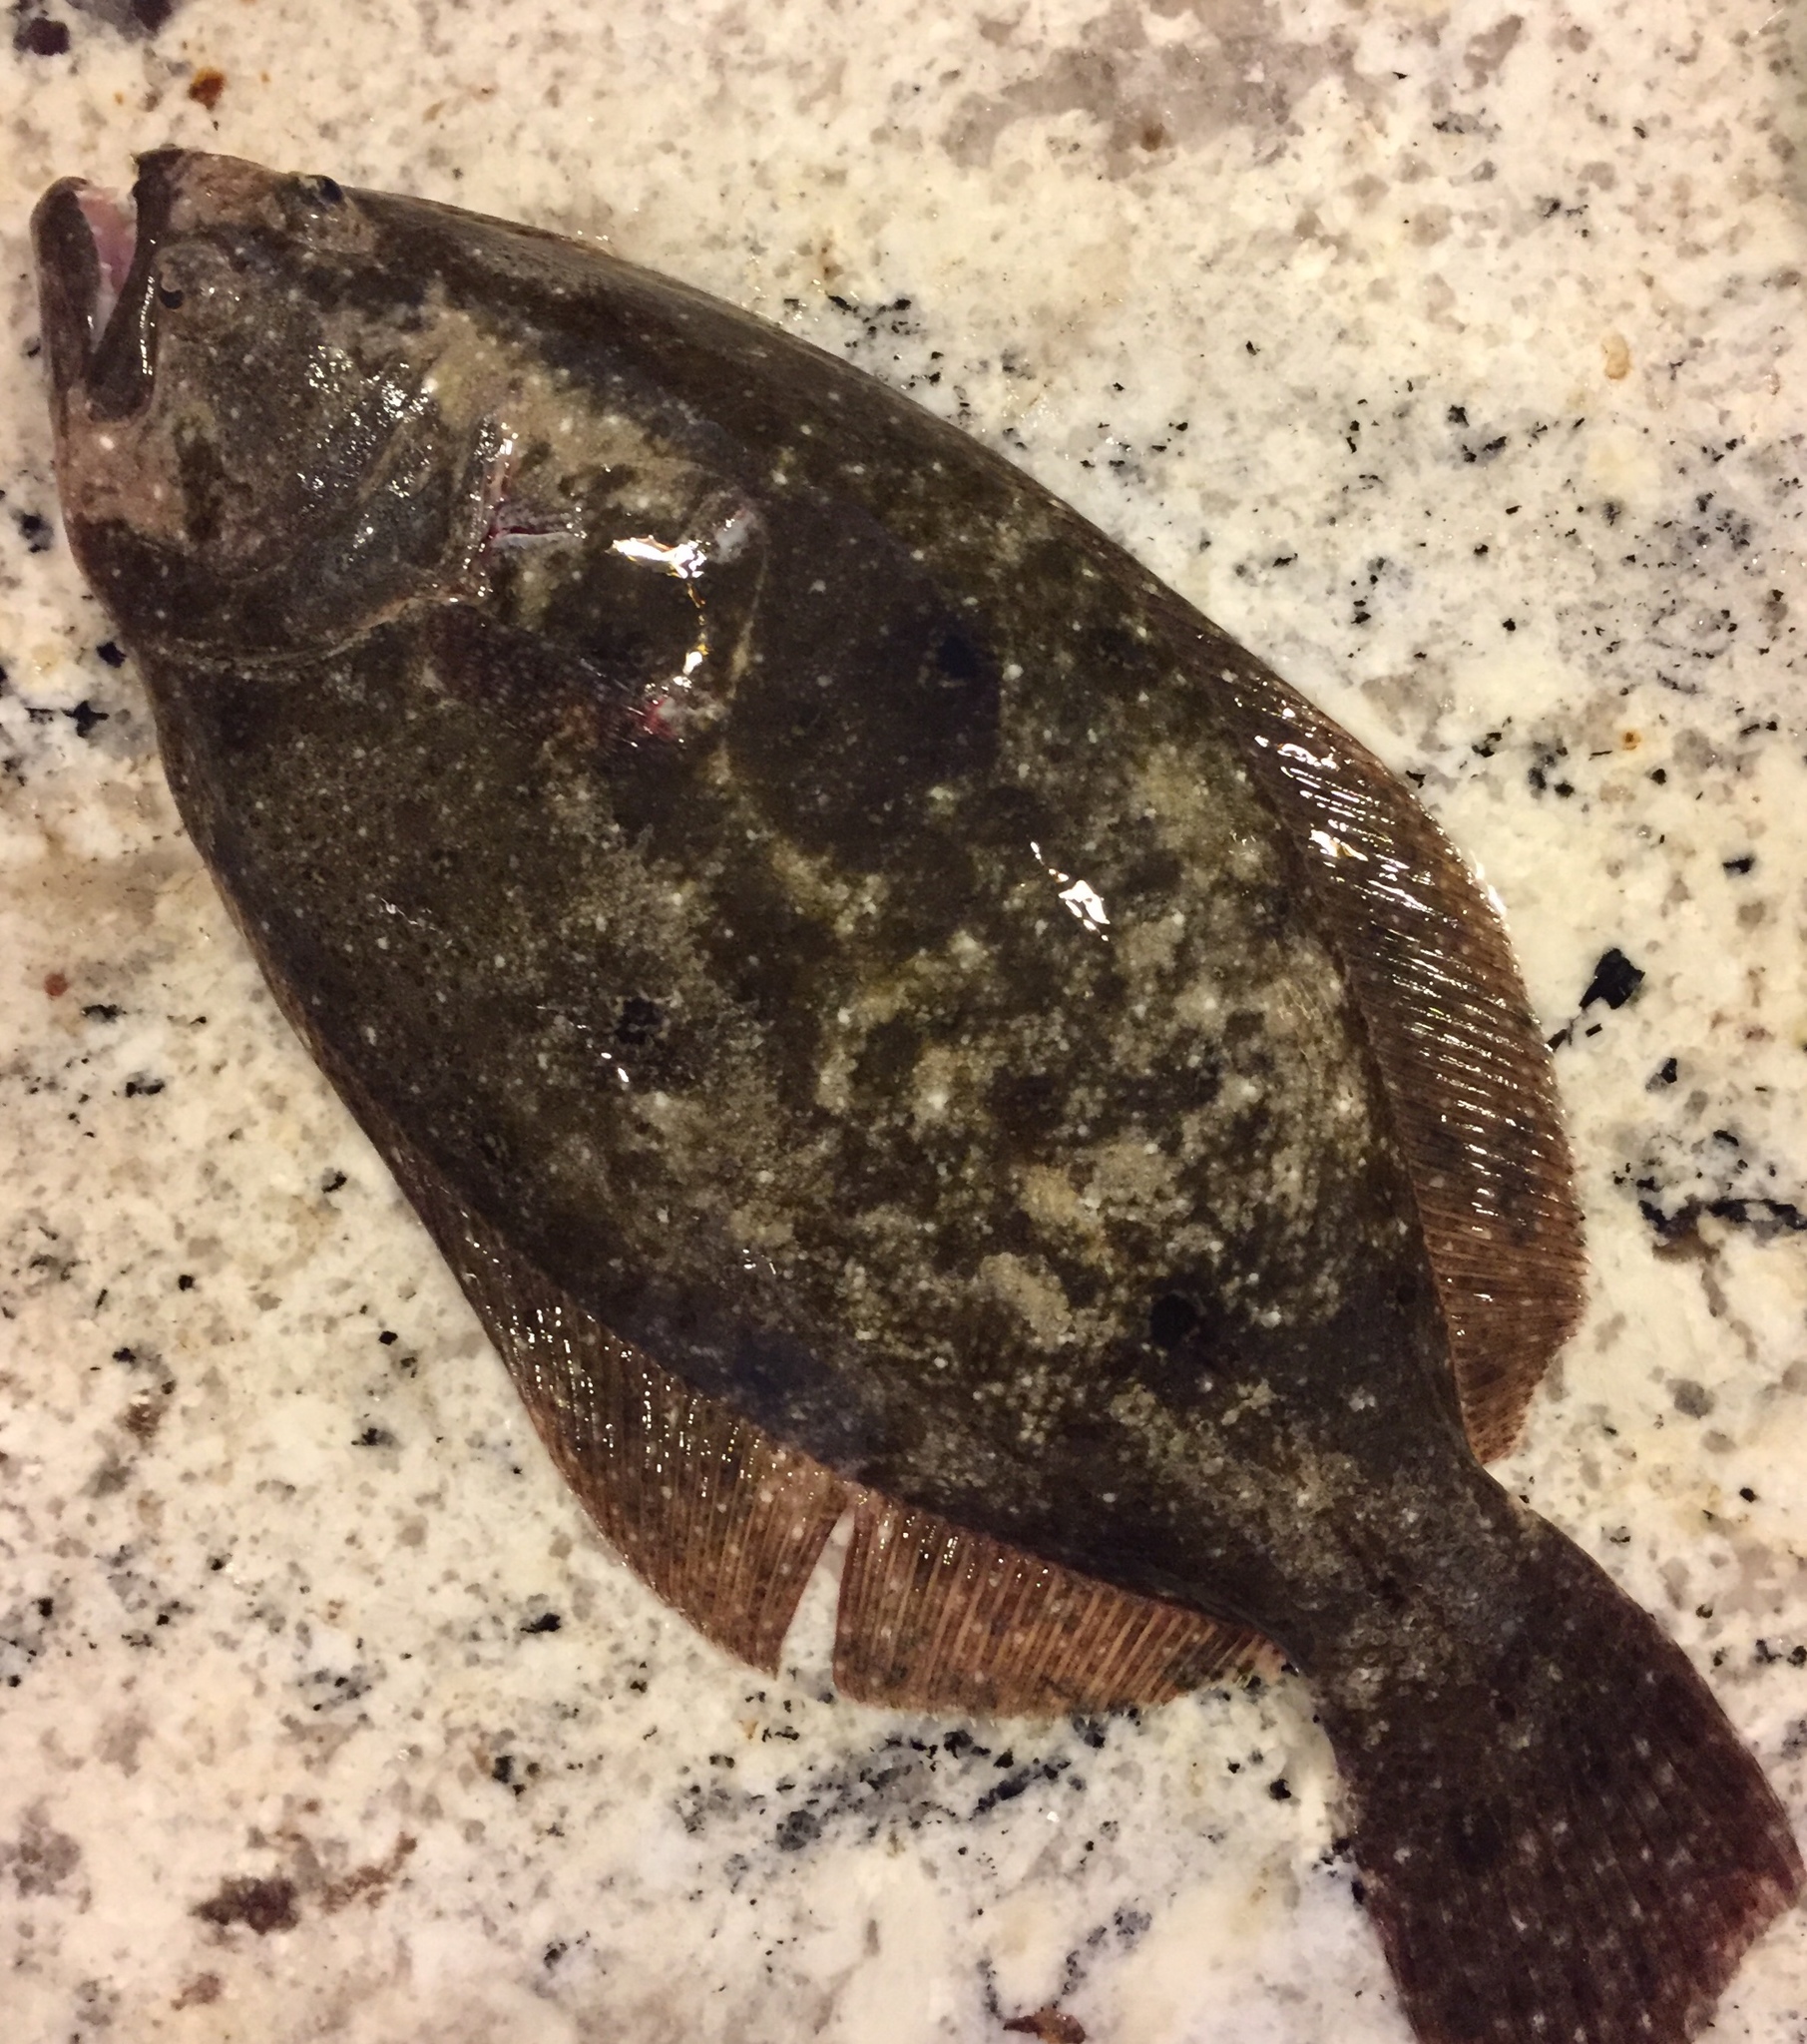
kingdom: Animalia
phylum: Chordata
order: Pleuronectiformes
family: Paralichthyidae
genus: Paralichthys
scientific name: Paralichthys albigutta
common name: Gulf flounder
